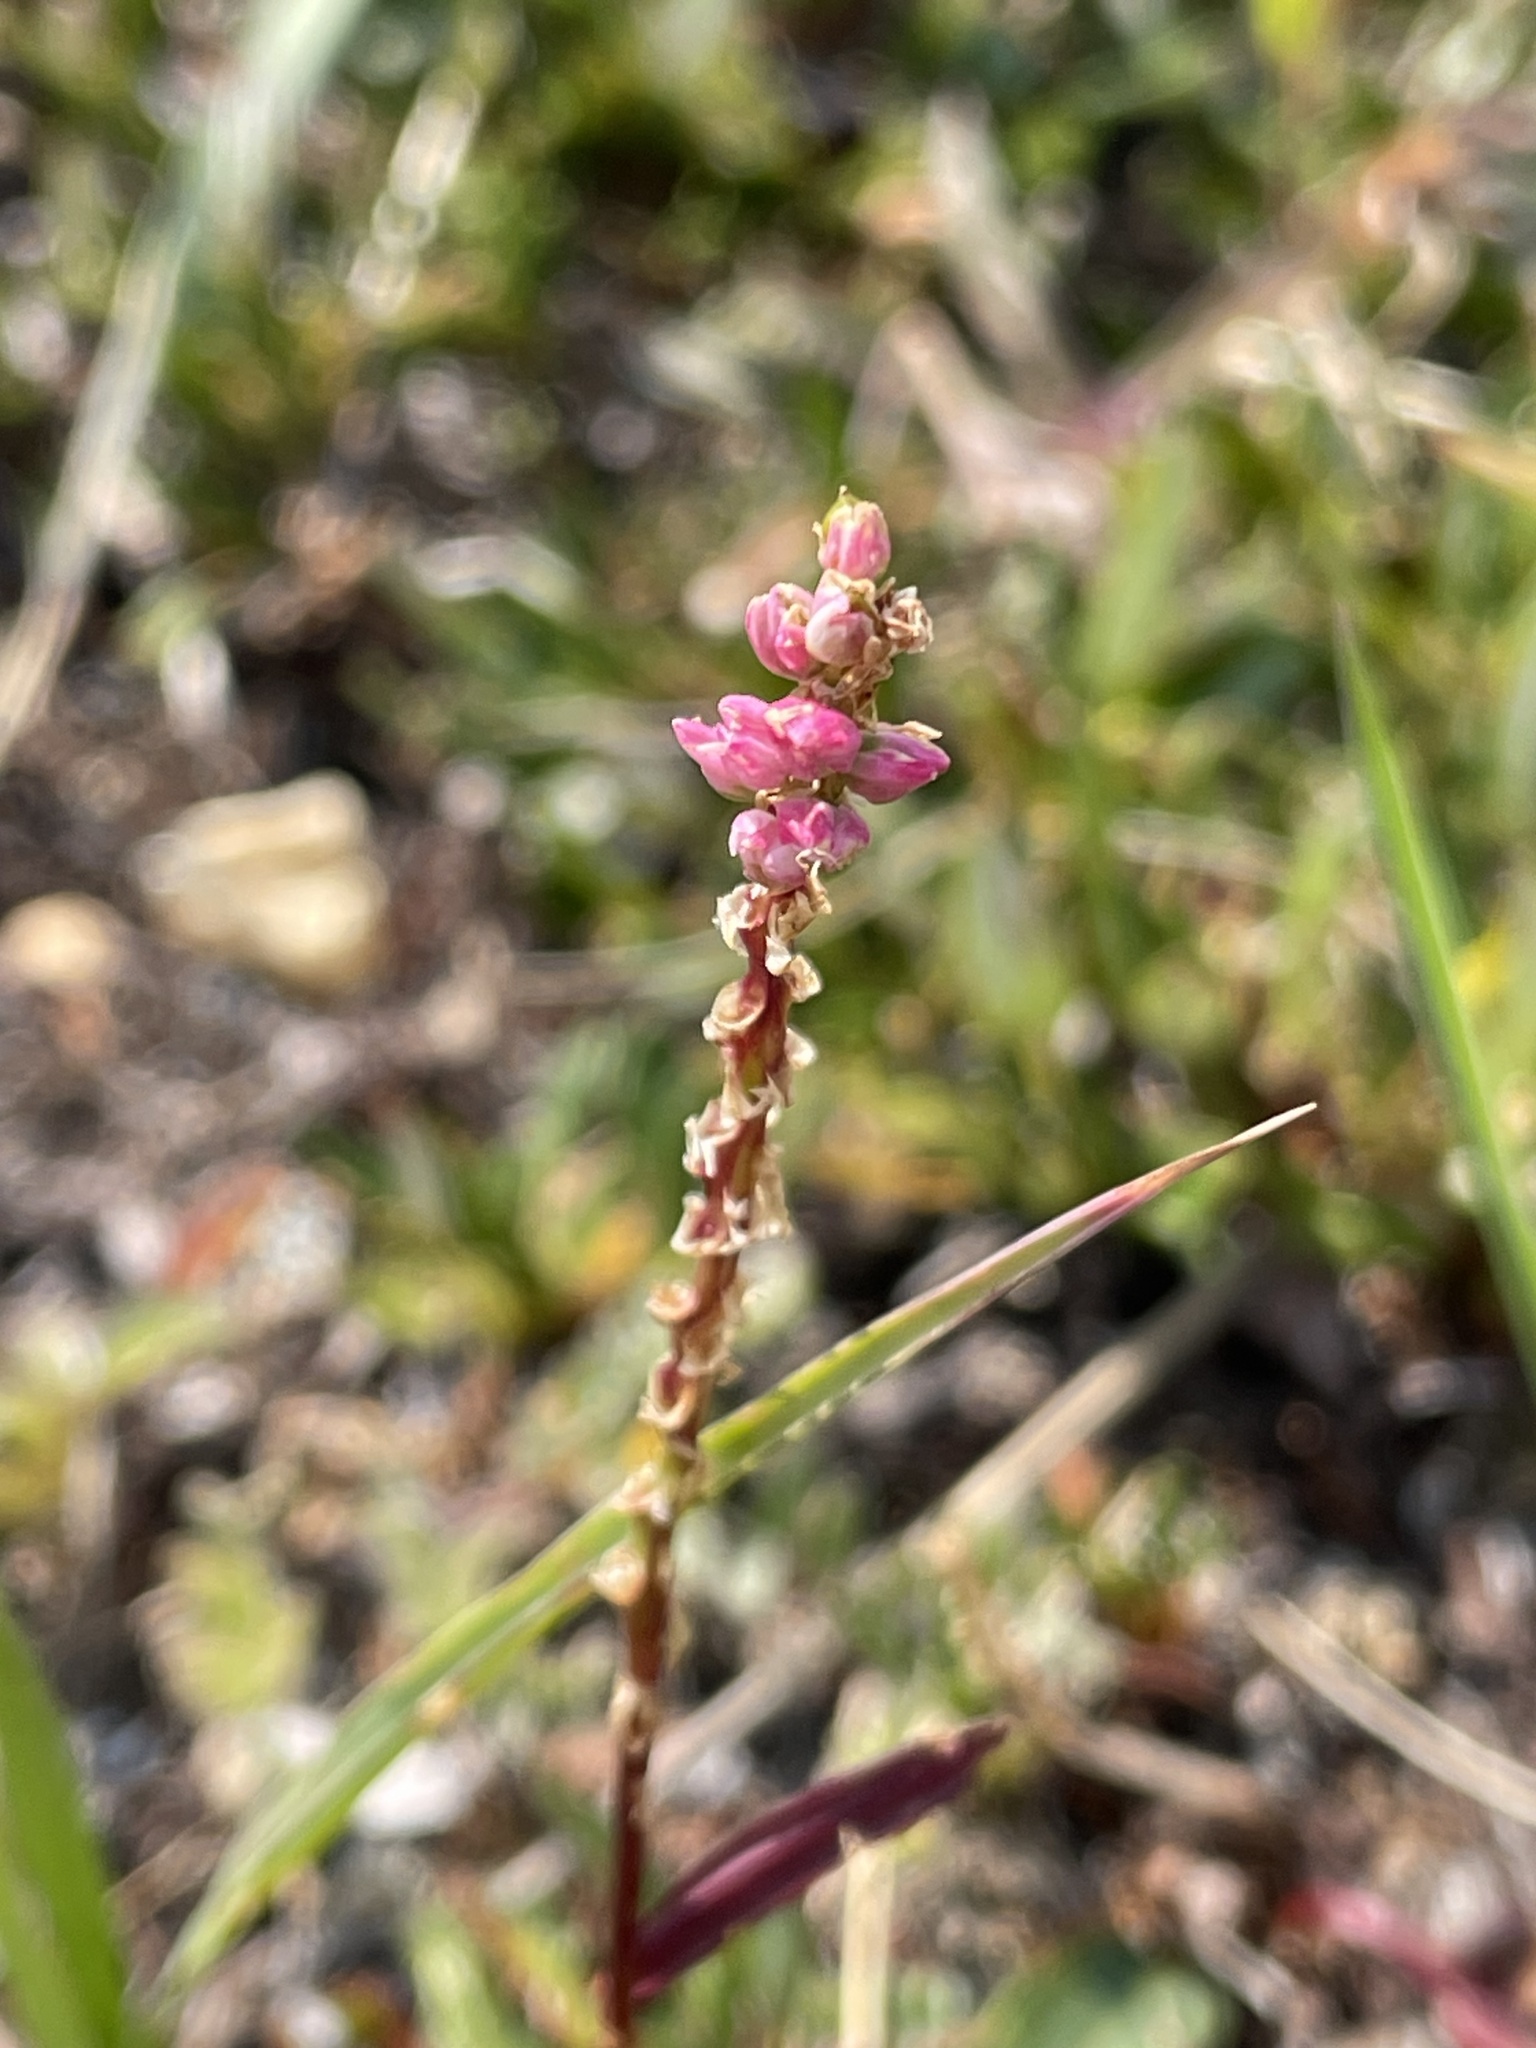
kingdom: Plantae
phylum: Tracheophyta
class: Magnoliopsida
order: Caryophyllales
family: Polygonaceae
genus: Bistorta
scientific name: Bistorta vivipara
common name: Alpine bistort
